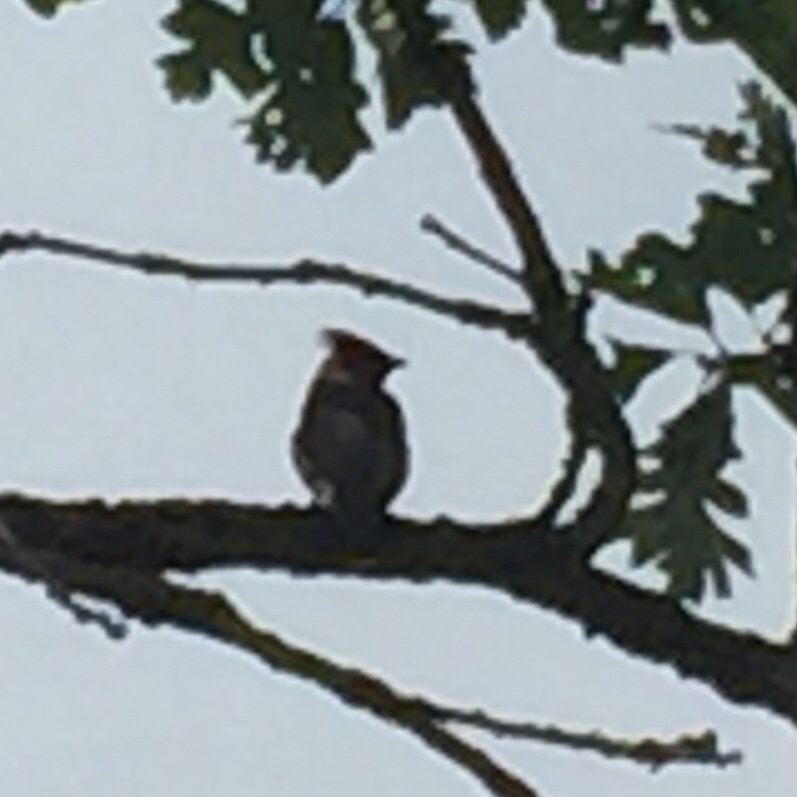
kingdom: Animalia
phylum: Chordata
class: Aves
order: Passeriformes
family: Bombycillidae
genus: Bombycilla
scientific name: Bombycilla cedrorum
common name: Cedar waxwing
